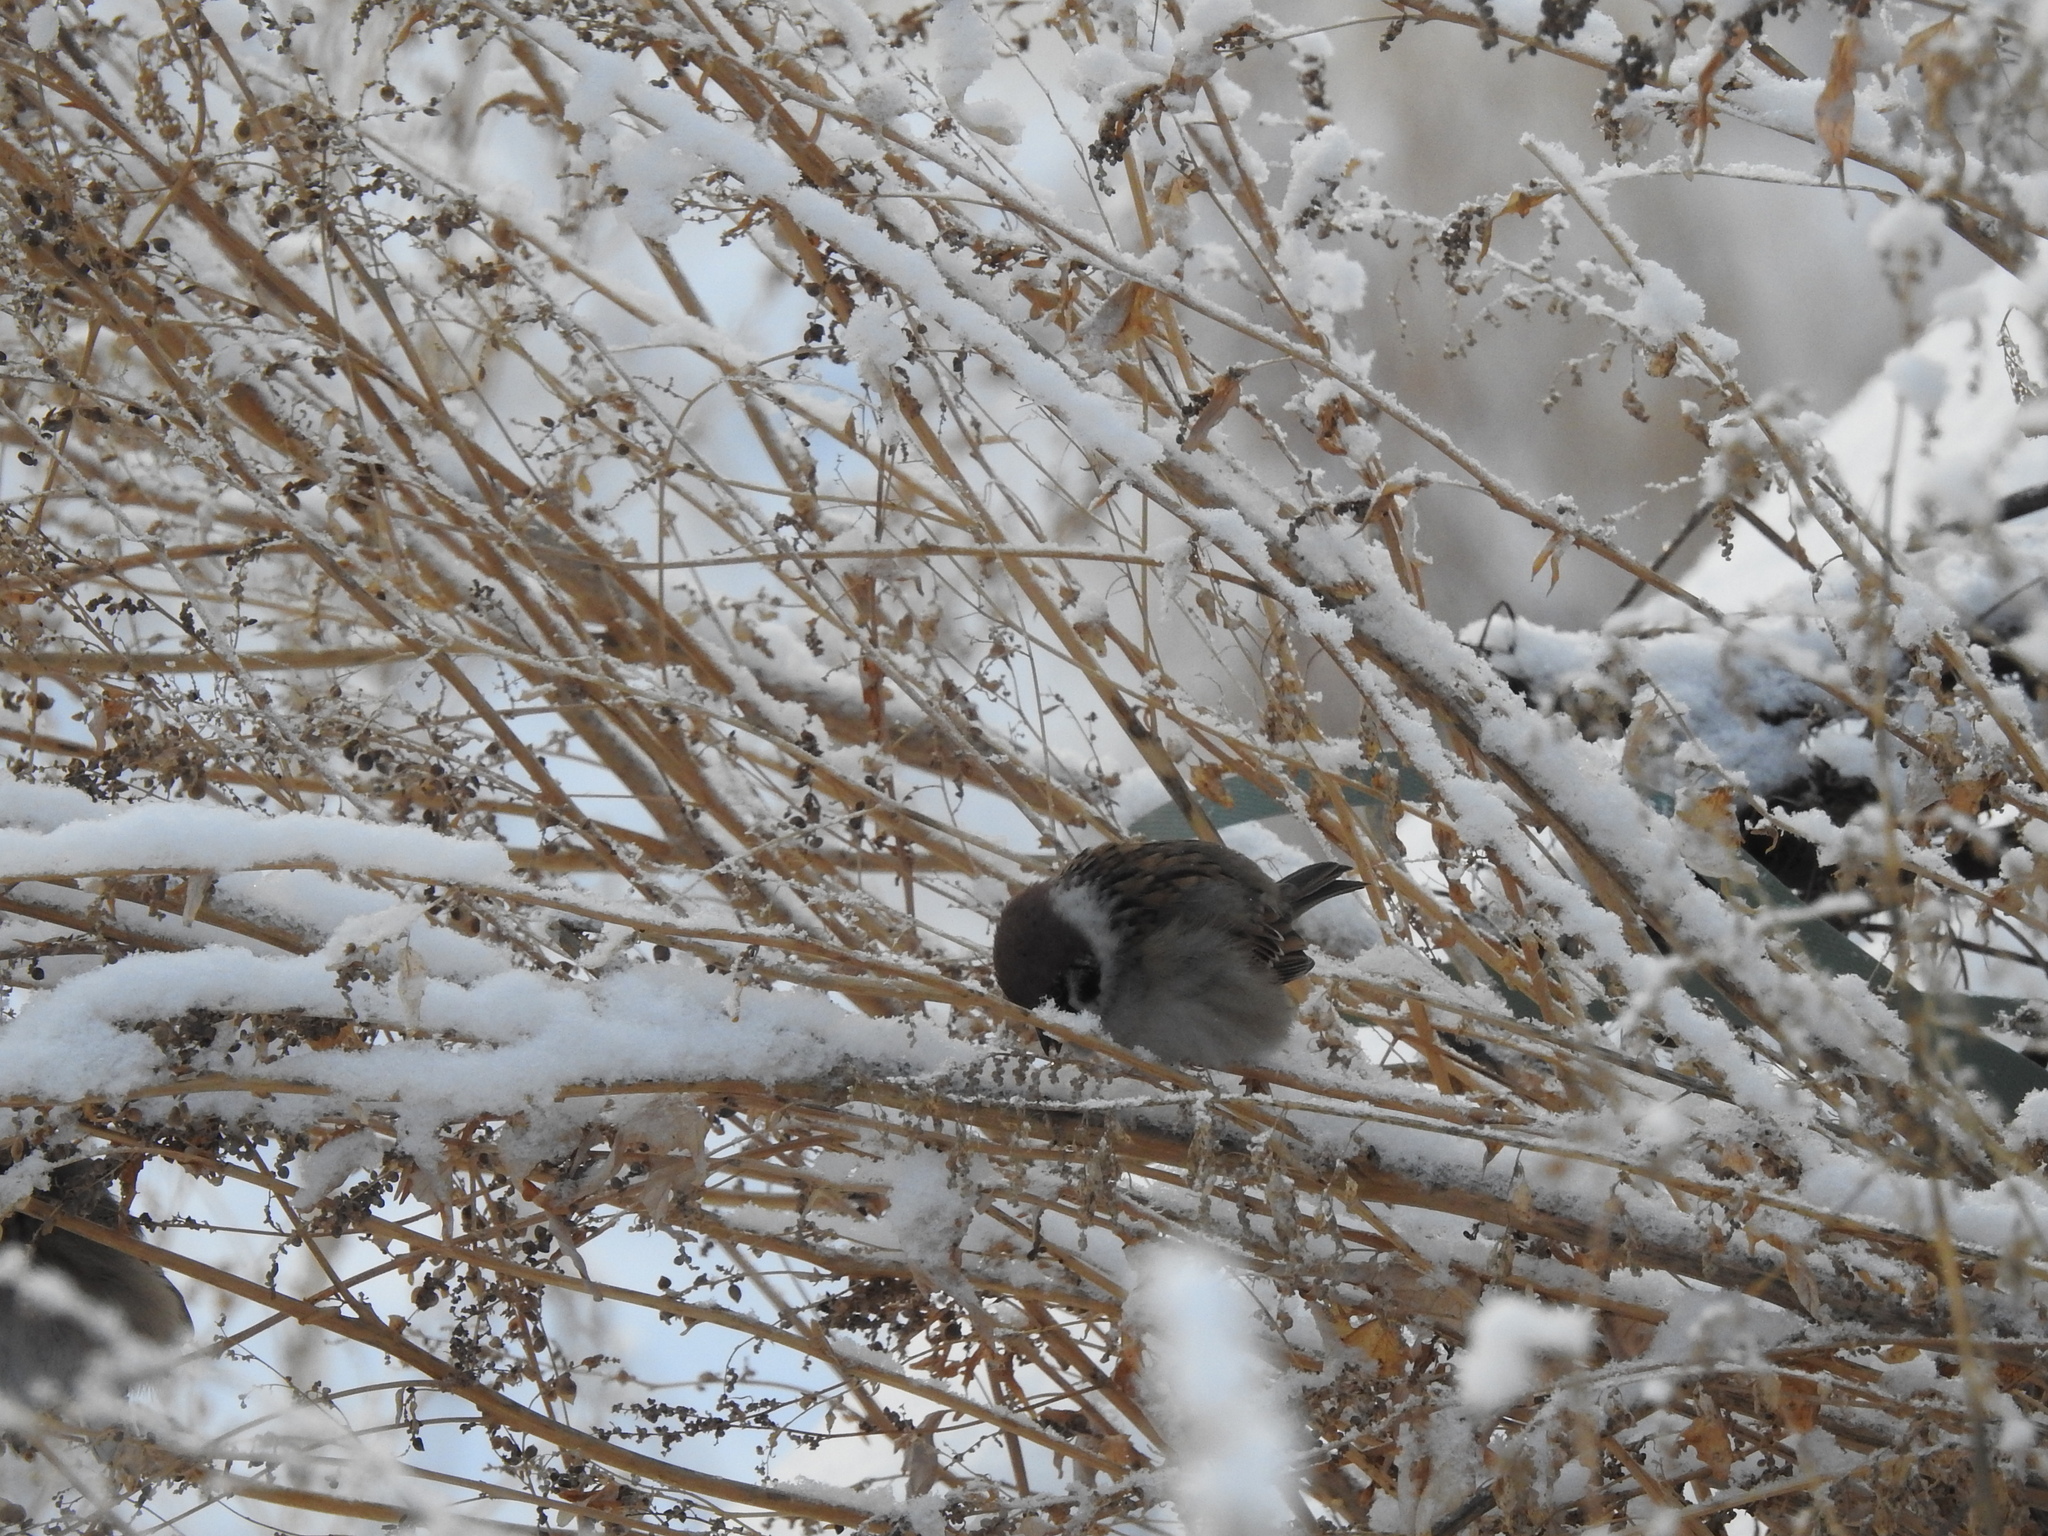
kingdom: Animalia
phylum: Chordata
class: Aves
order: Passeriformes
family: Passeridae
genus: Passer
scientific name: Passer montanus
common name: Eurasian tree sparrow
